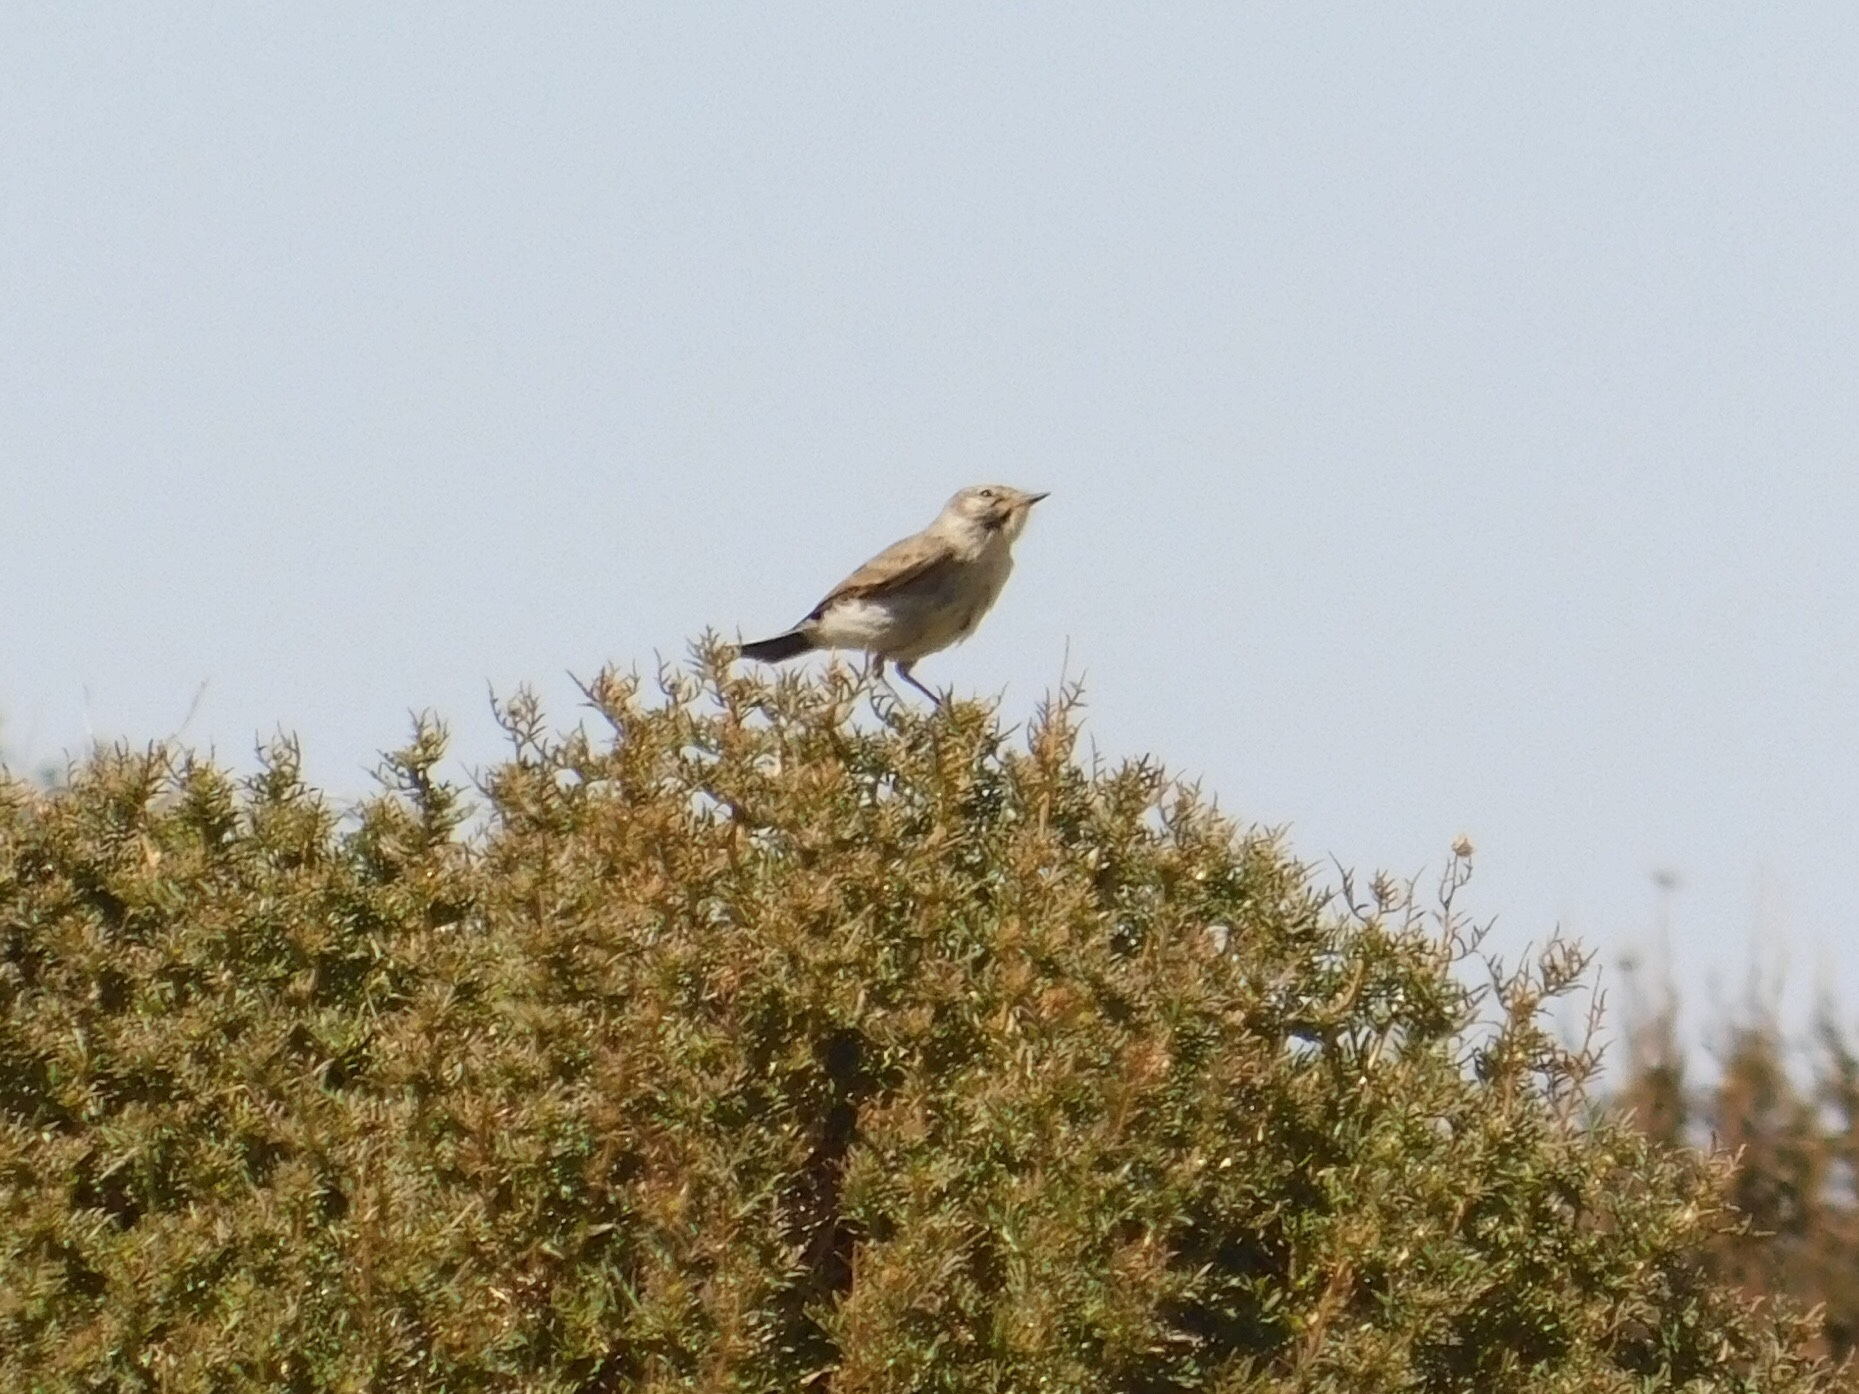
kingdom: Animalia
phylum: Chordata
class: Aves
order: Passeriformes
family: Tyrannidae
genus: Muscisaxicola
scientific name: Muscisaxicola maculirostris
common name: Spot-billed ground tyrant
